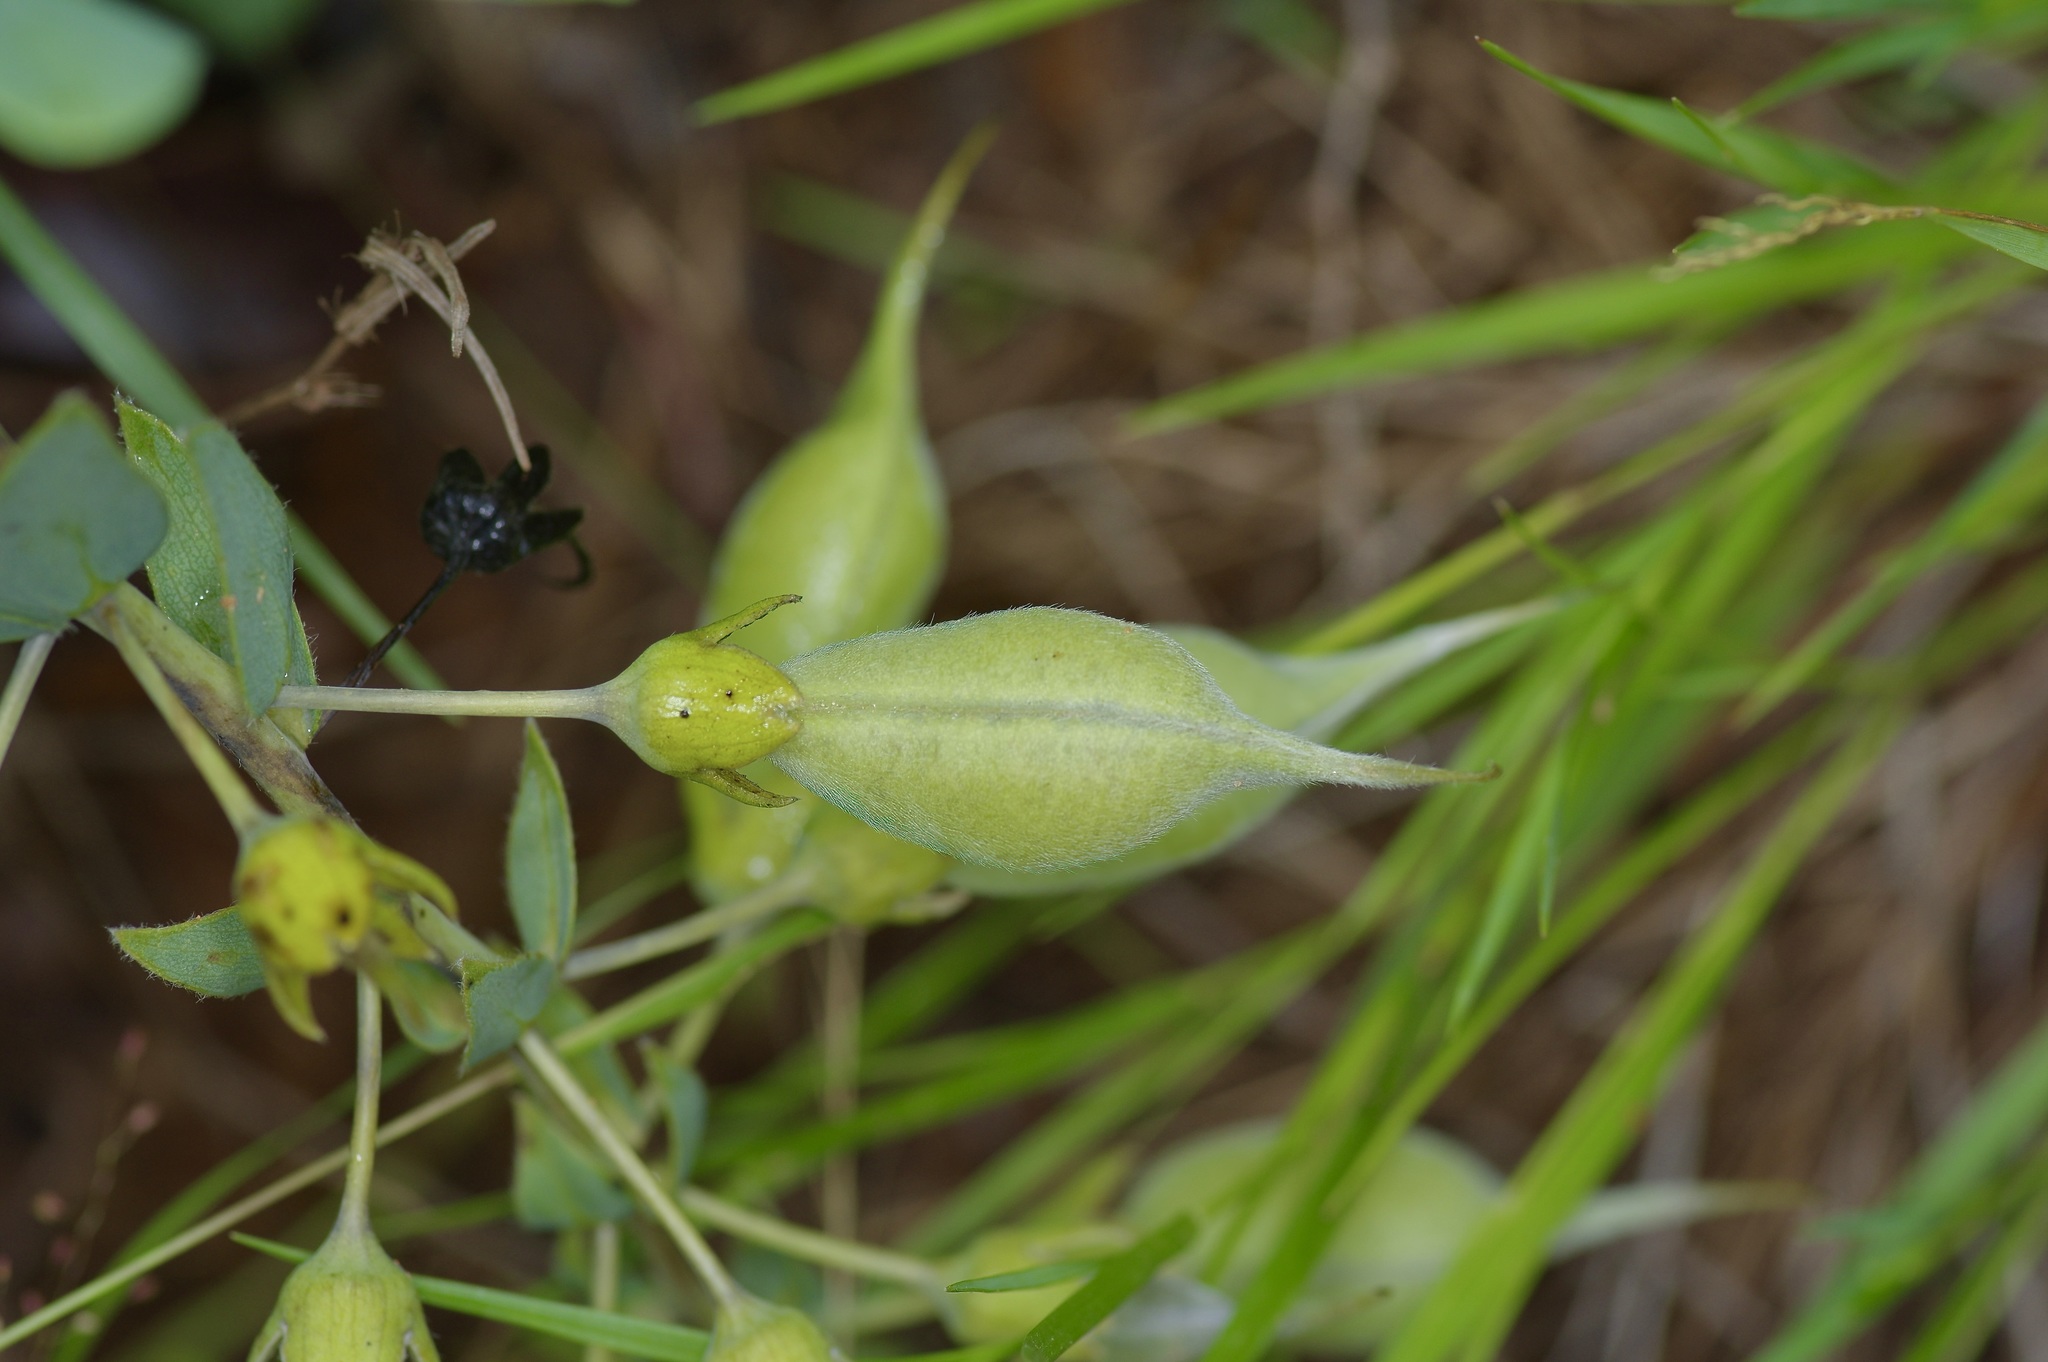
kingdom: Plantae
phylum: Tracheophyta
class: Magnoliopsida
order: Fabales
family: Fabaceae
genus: Baptisia
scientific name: Baptisia bracteata
